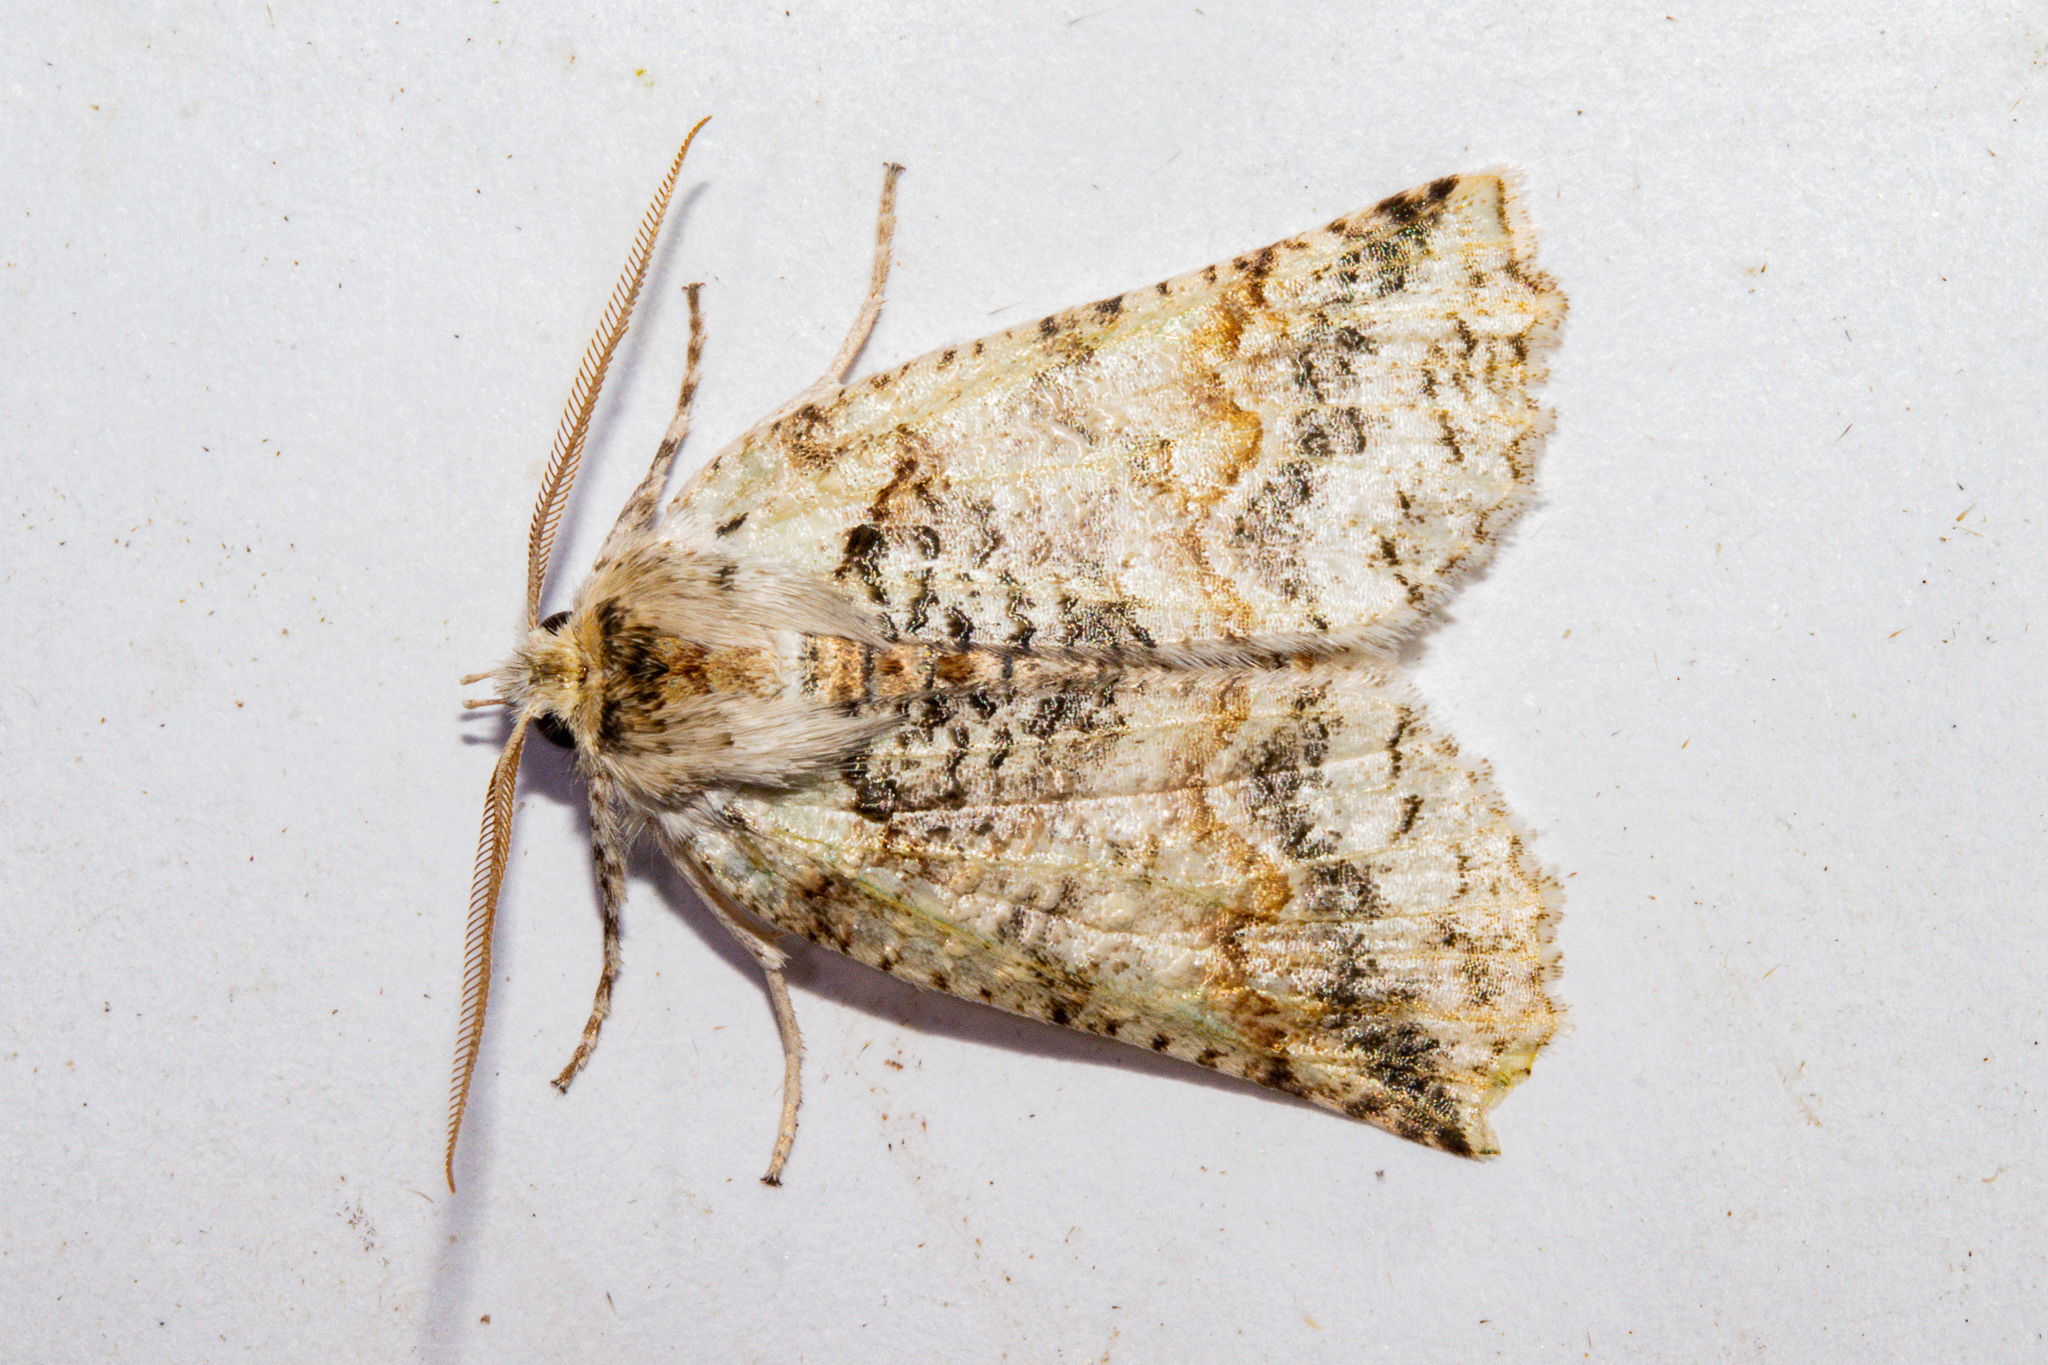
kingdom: Animalia
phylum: Arthropoda
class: Insecta
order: Lepidoptera
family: Geometridae
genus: Declana
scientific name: Declana floccosa
